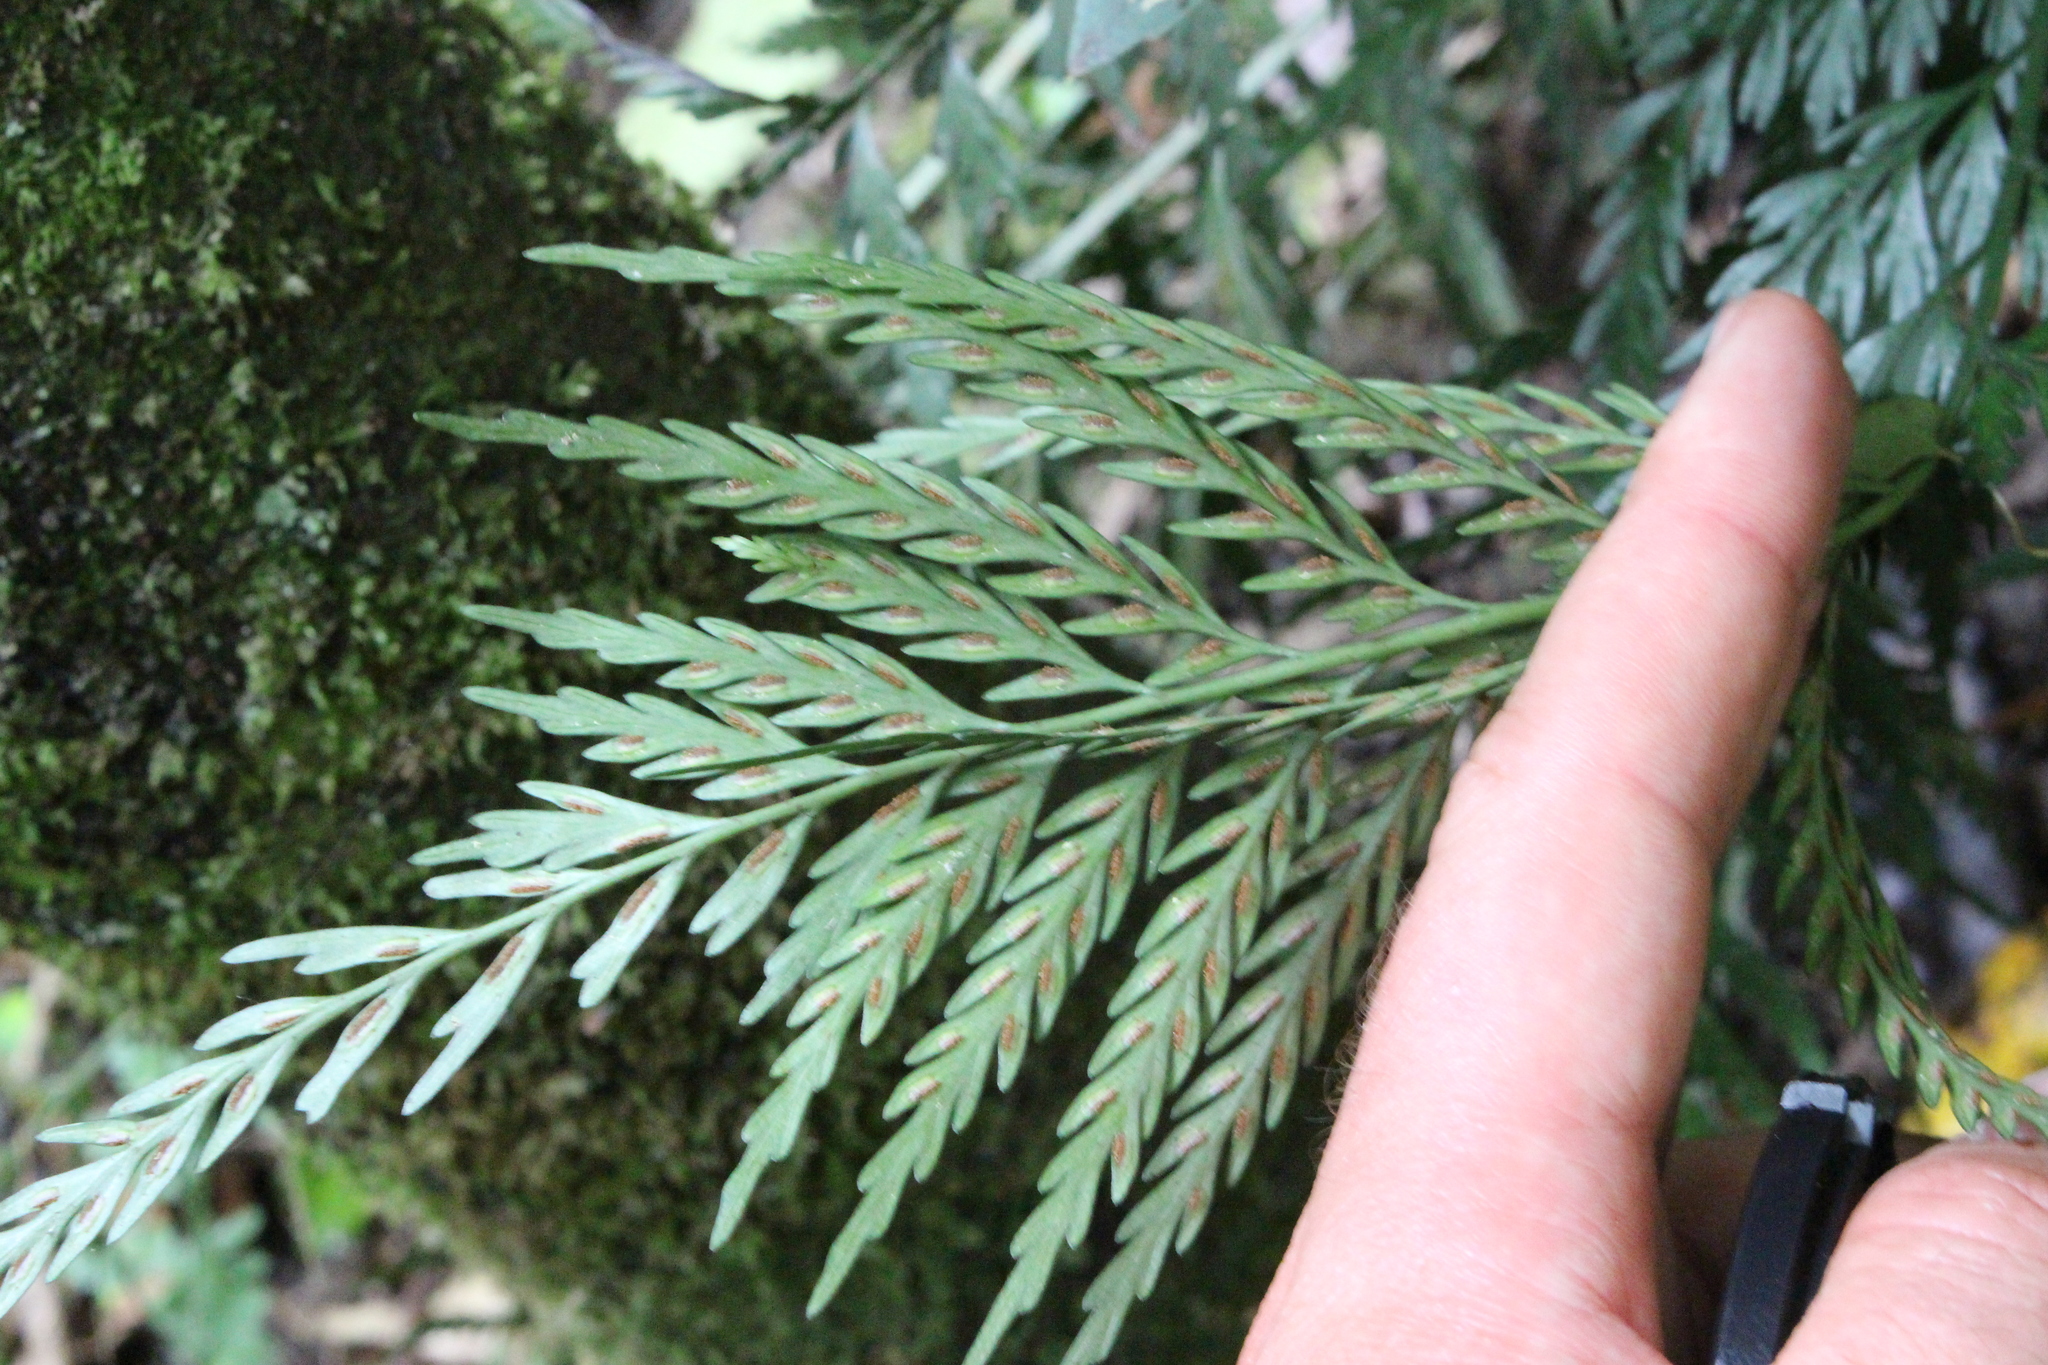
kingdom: Plantae
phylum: Tracheophyta
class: Polypodiopsida
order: Polypodiales
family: Aspleniaceae
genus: Asplenium
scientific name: Asplenium appendiculatum
